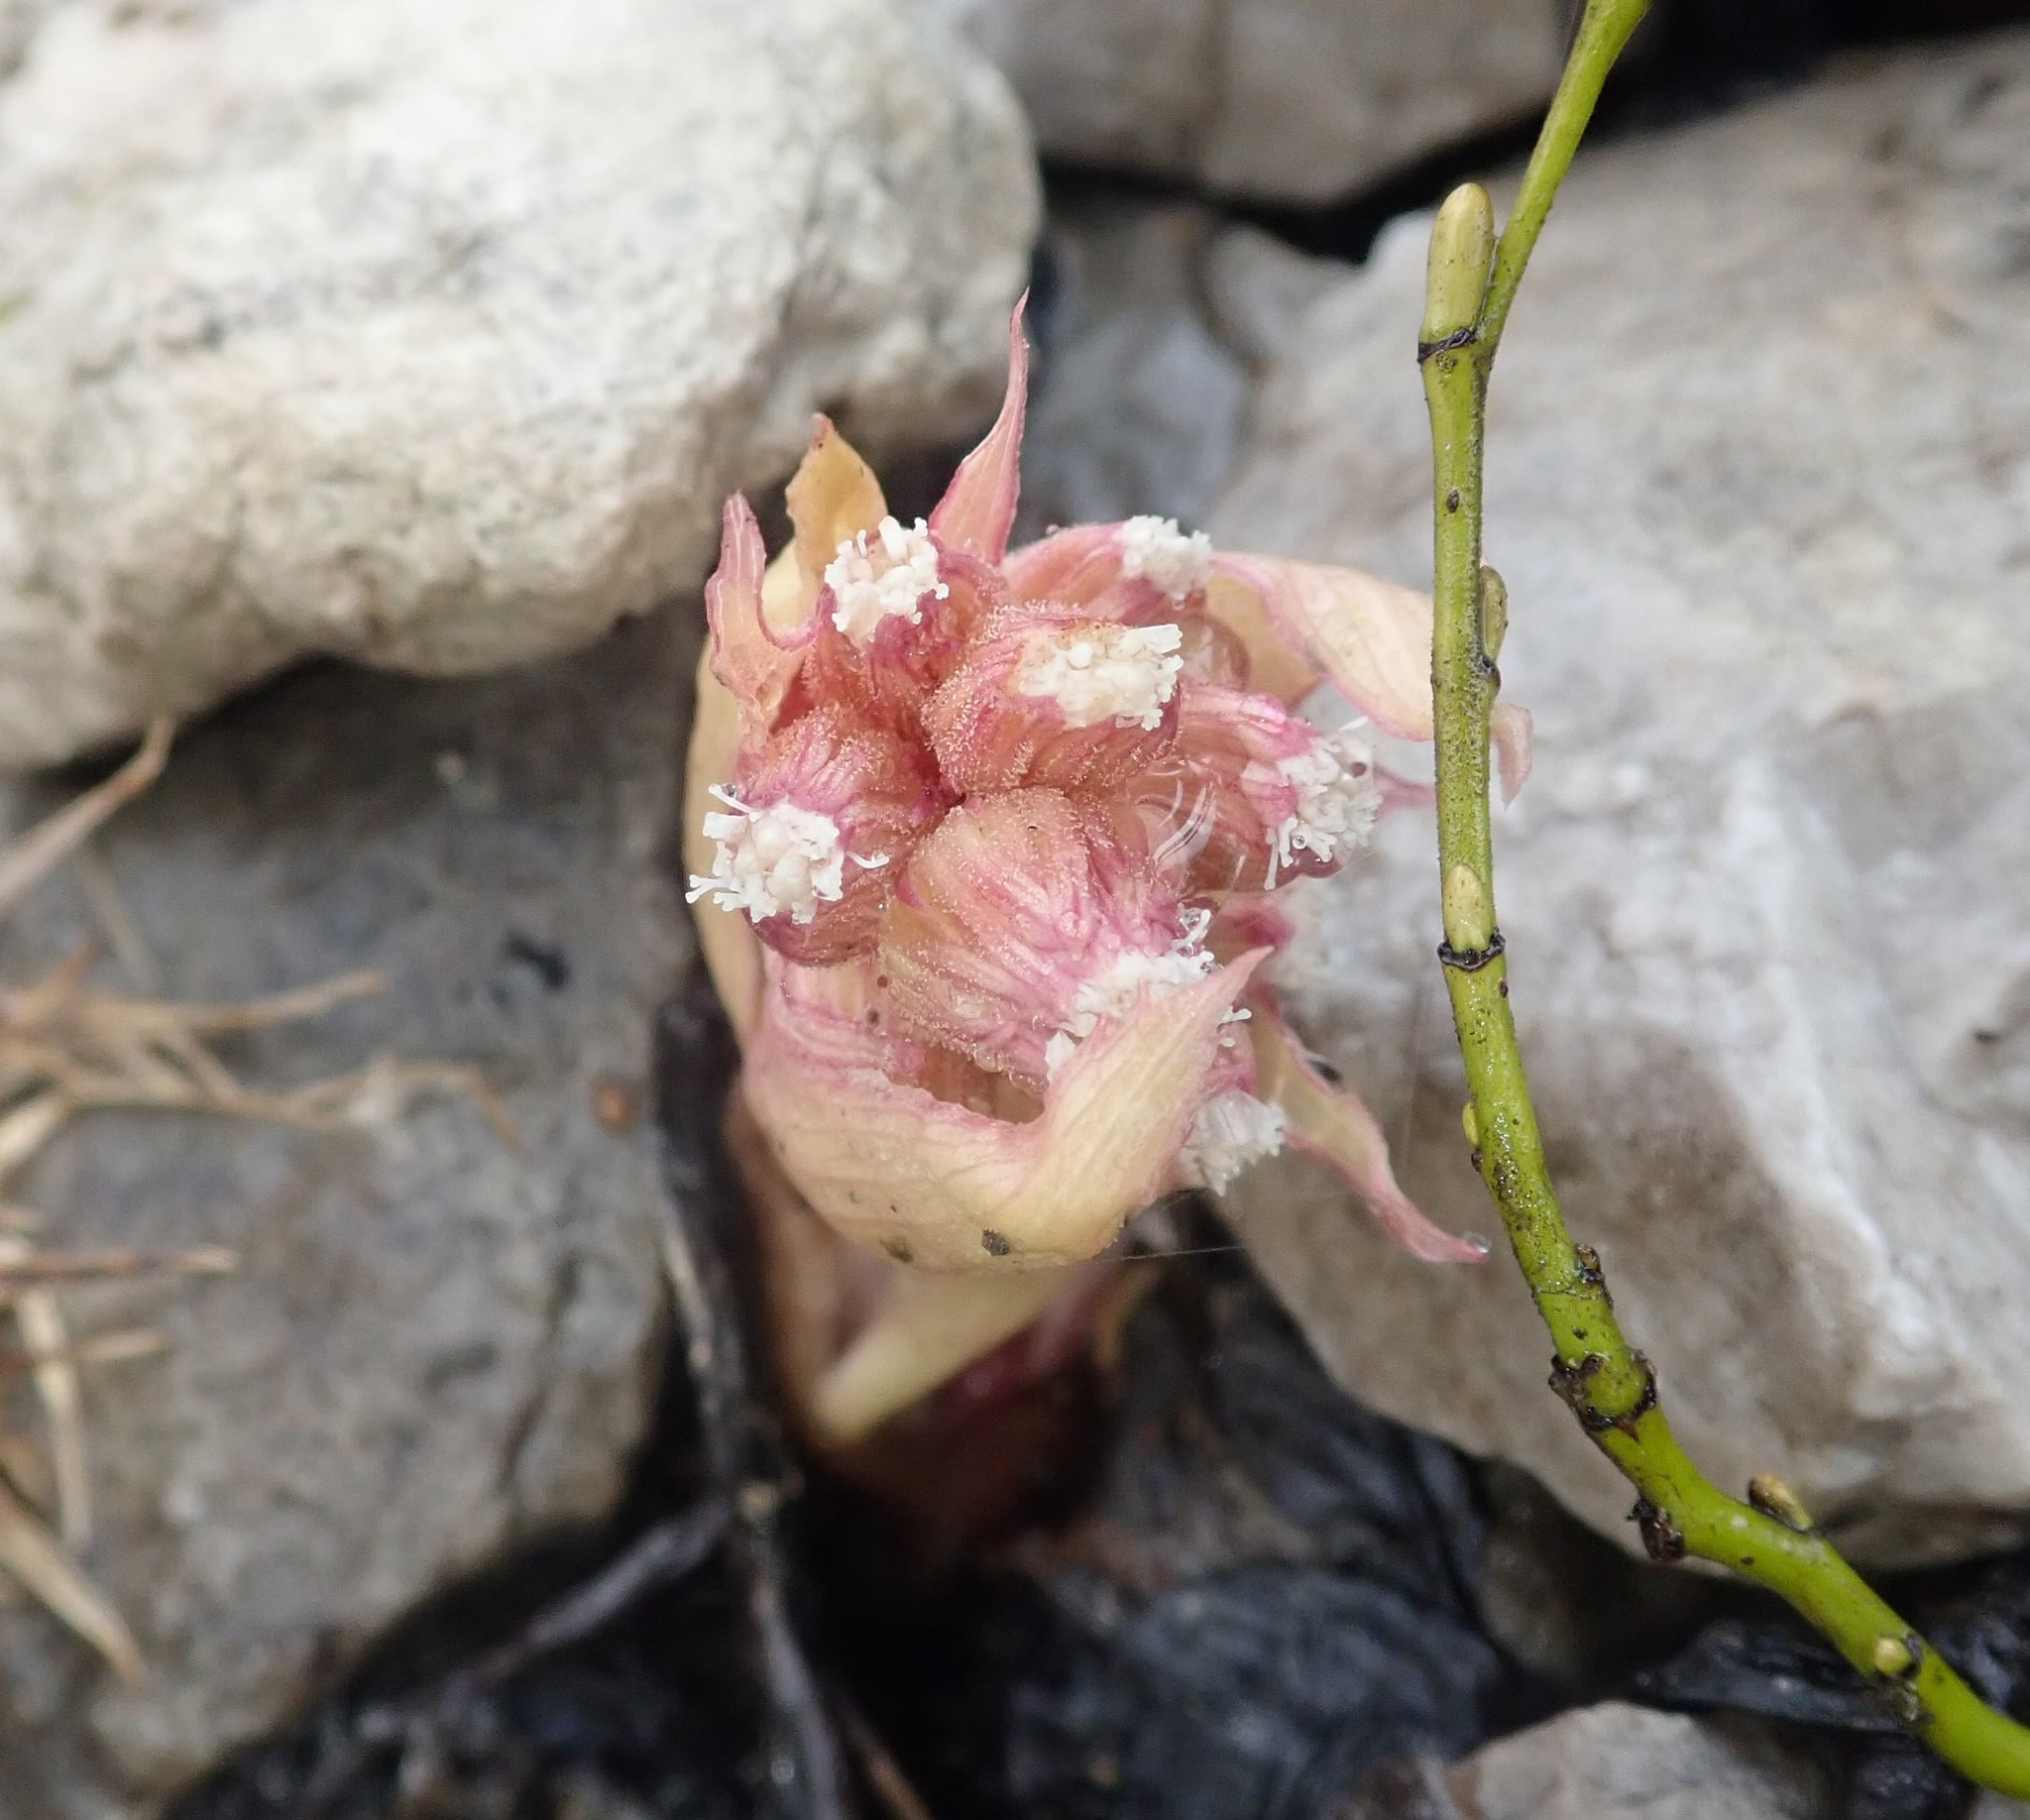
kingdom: Plantae
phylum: Tracheophyta
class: Magnoliopsida
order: Asterales
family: Asteraceae
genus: Petasites
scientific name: Petasites paradoxus
